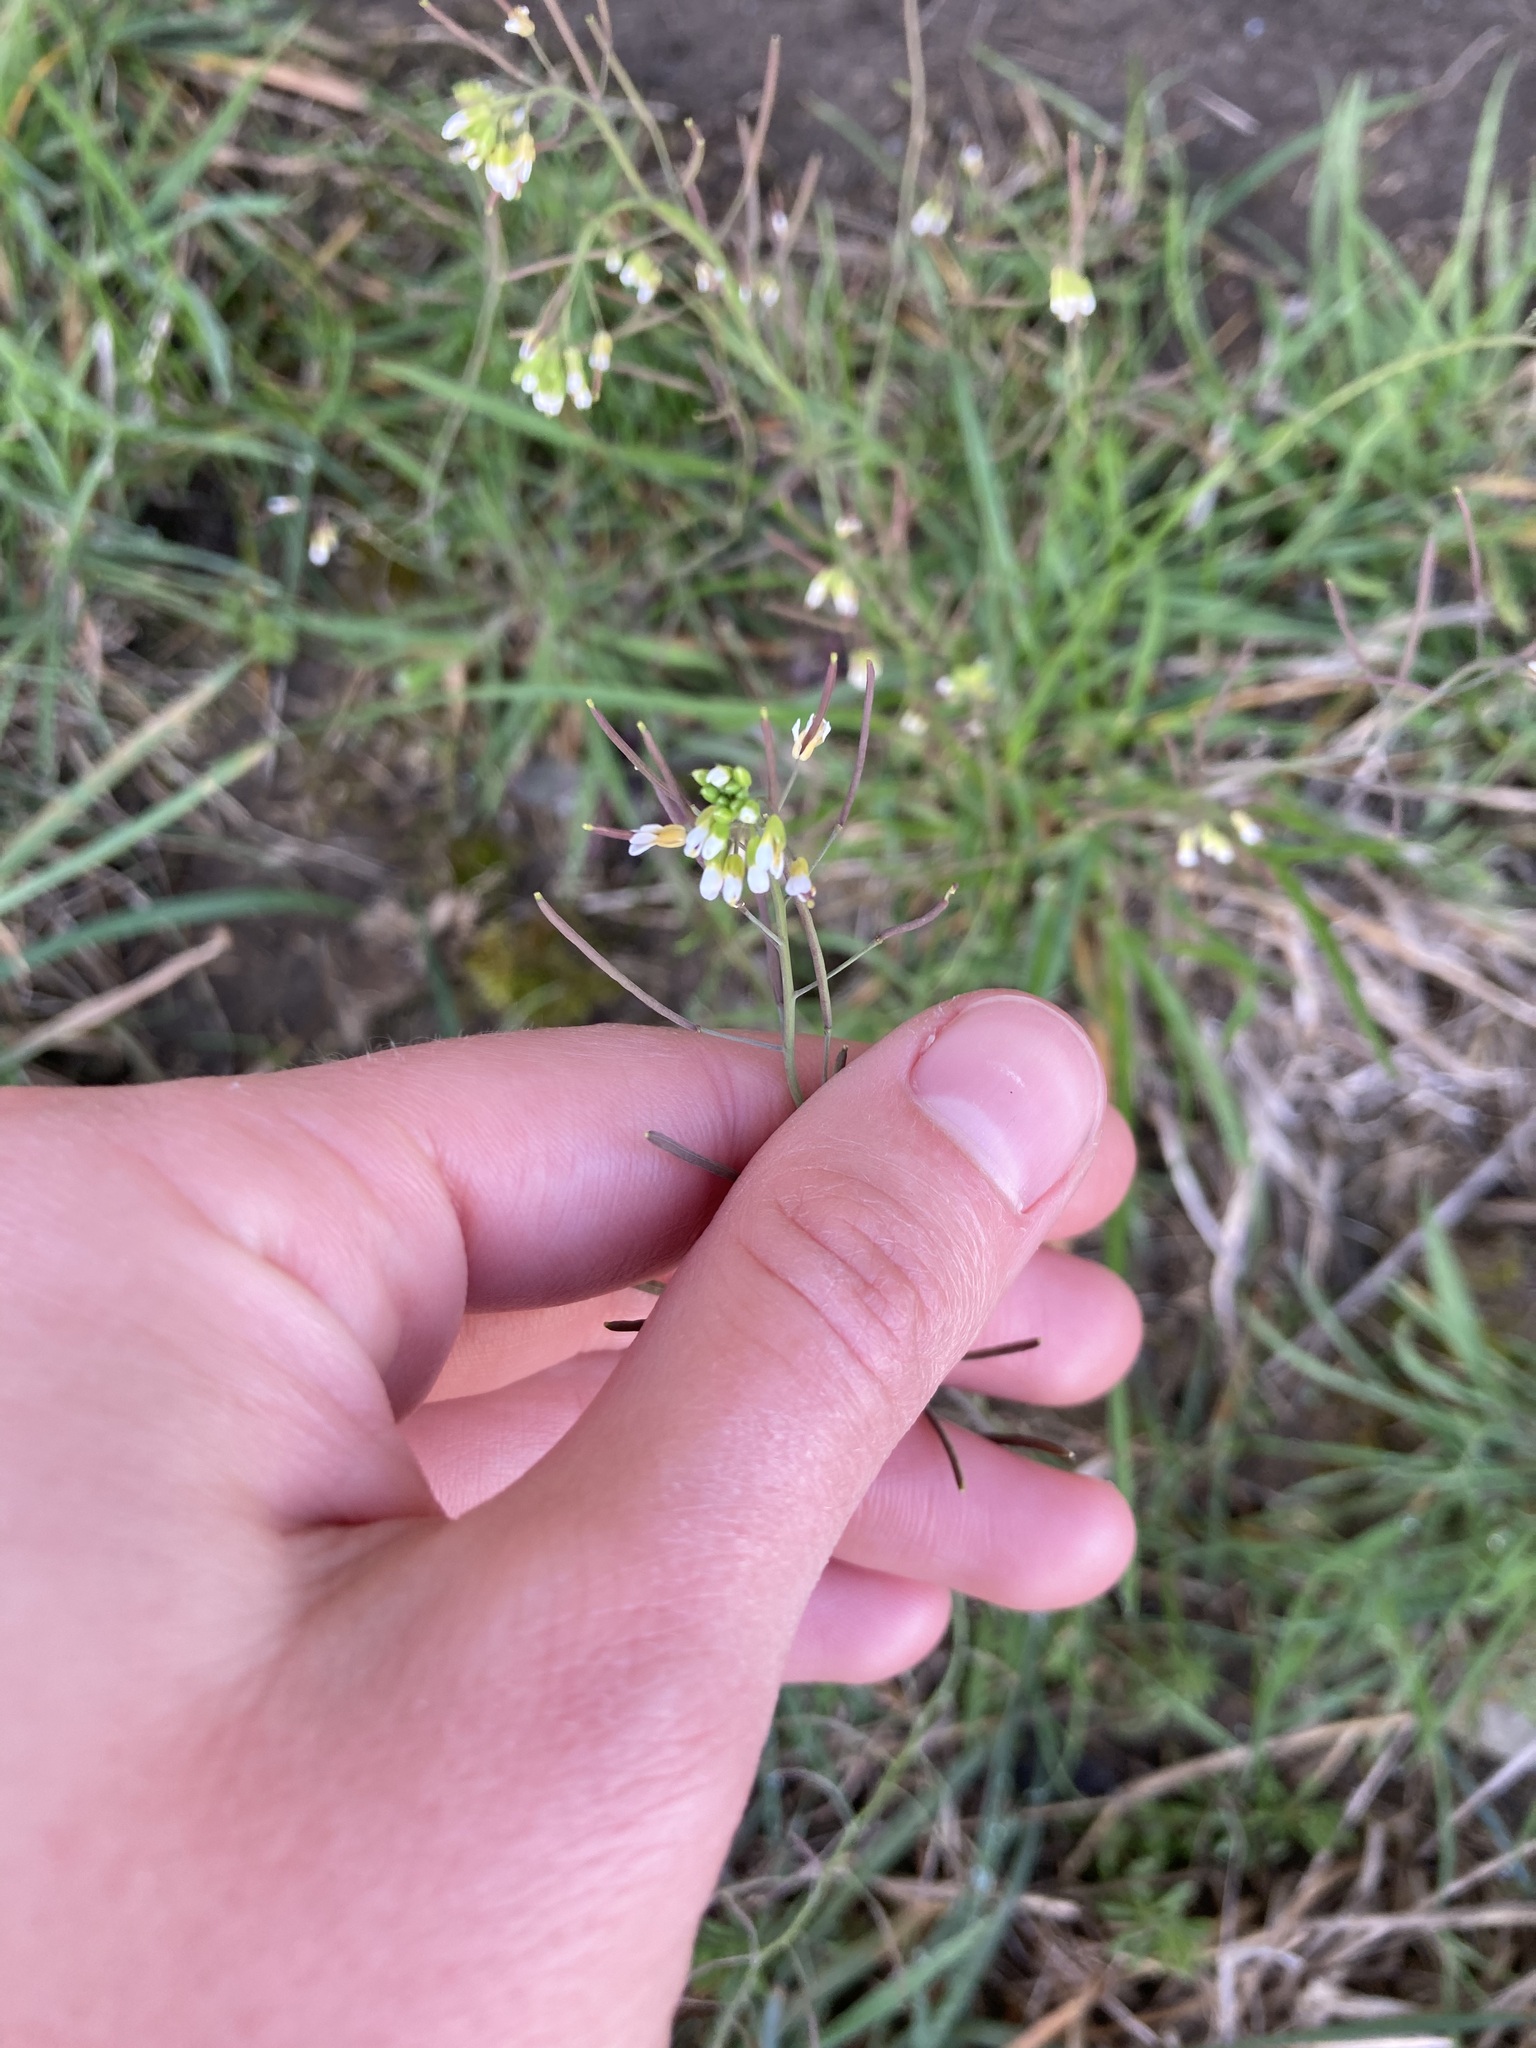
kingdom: Plantae
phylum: Tracheophyta
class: Magnoliopsida
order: Brassicales
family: Brassicaceae
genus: Arabidopsis
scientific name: Arabidopsis thaliana
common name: Thale cress
